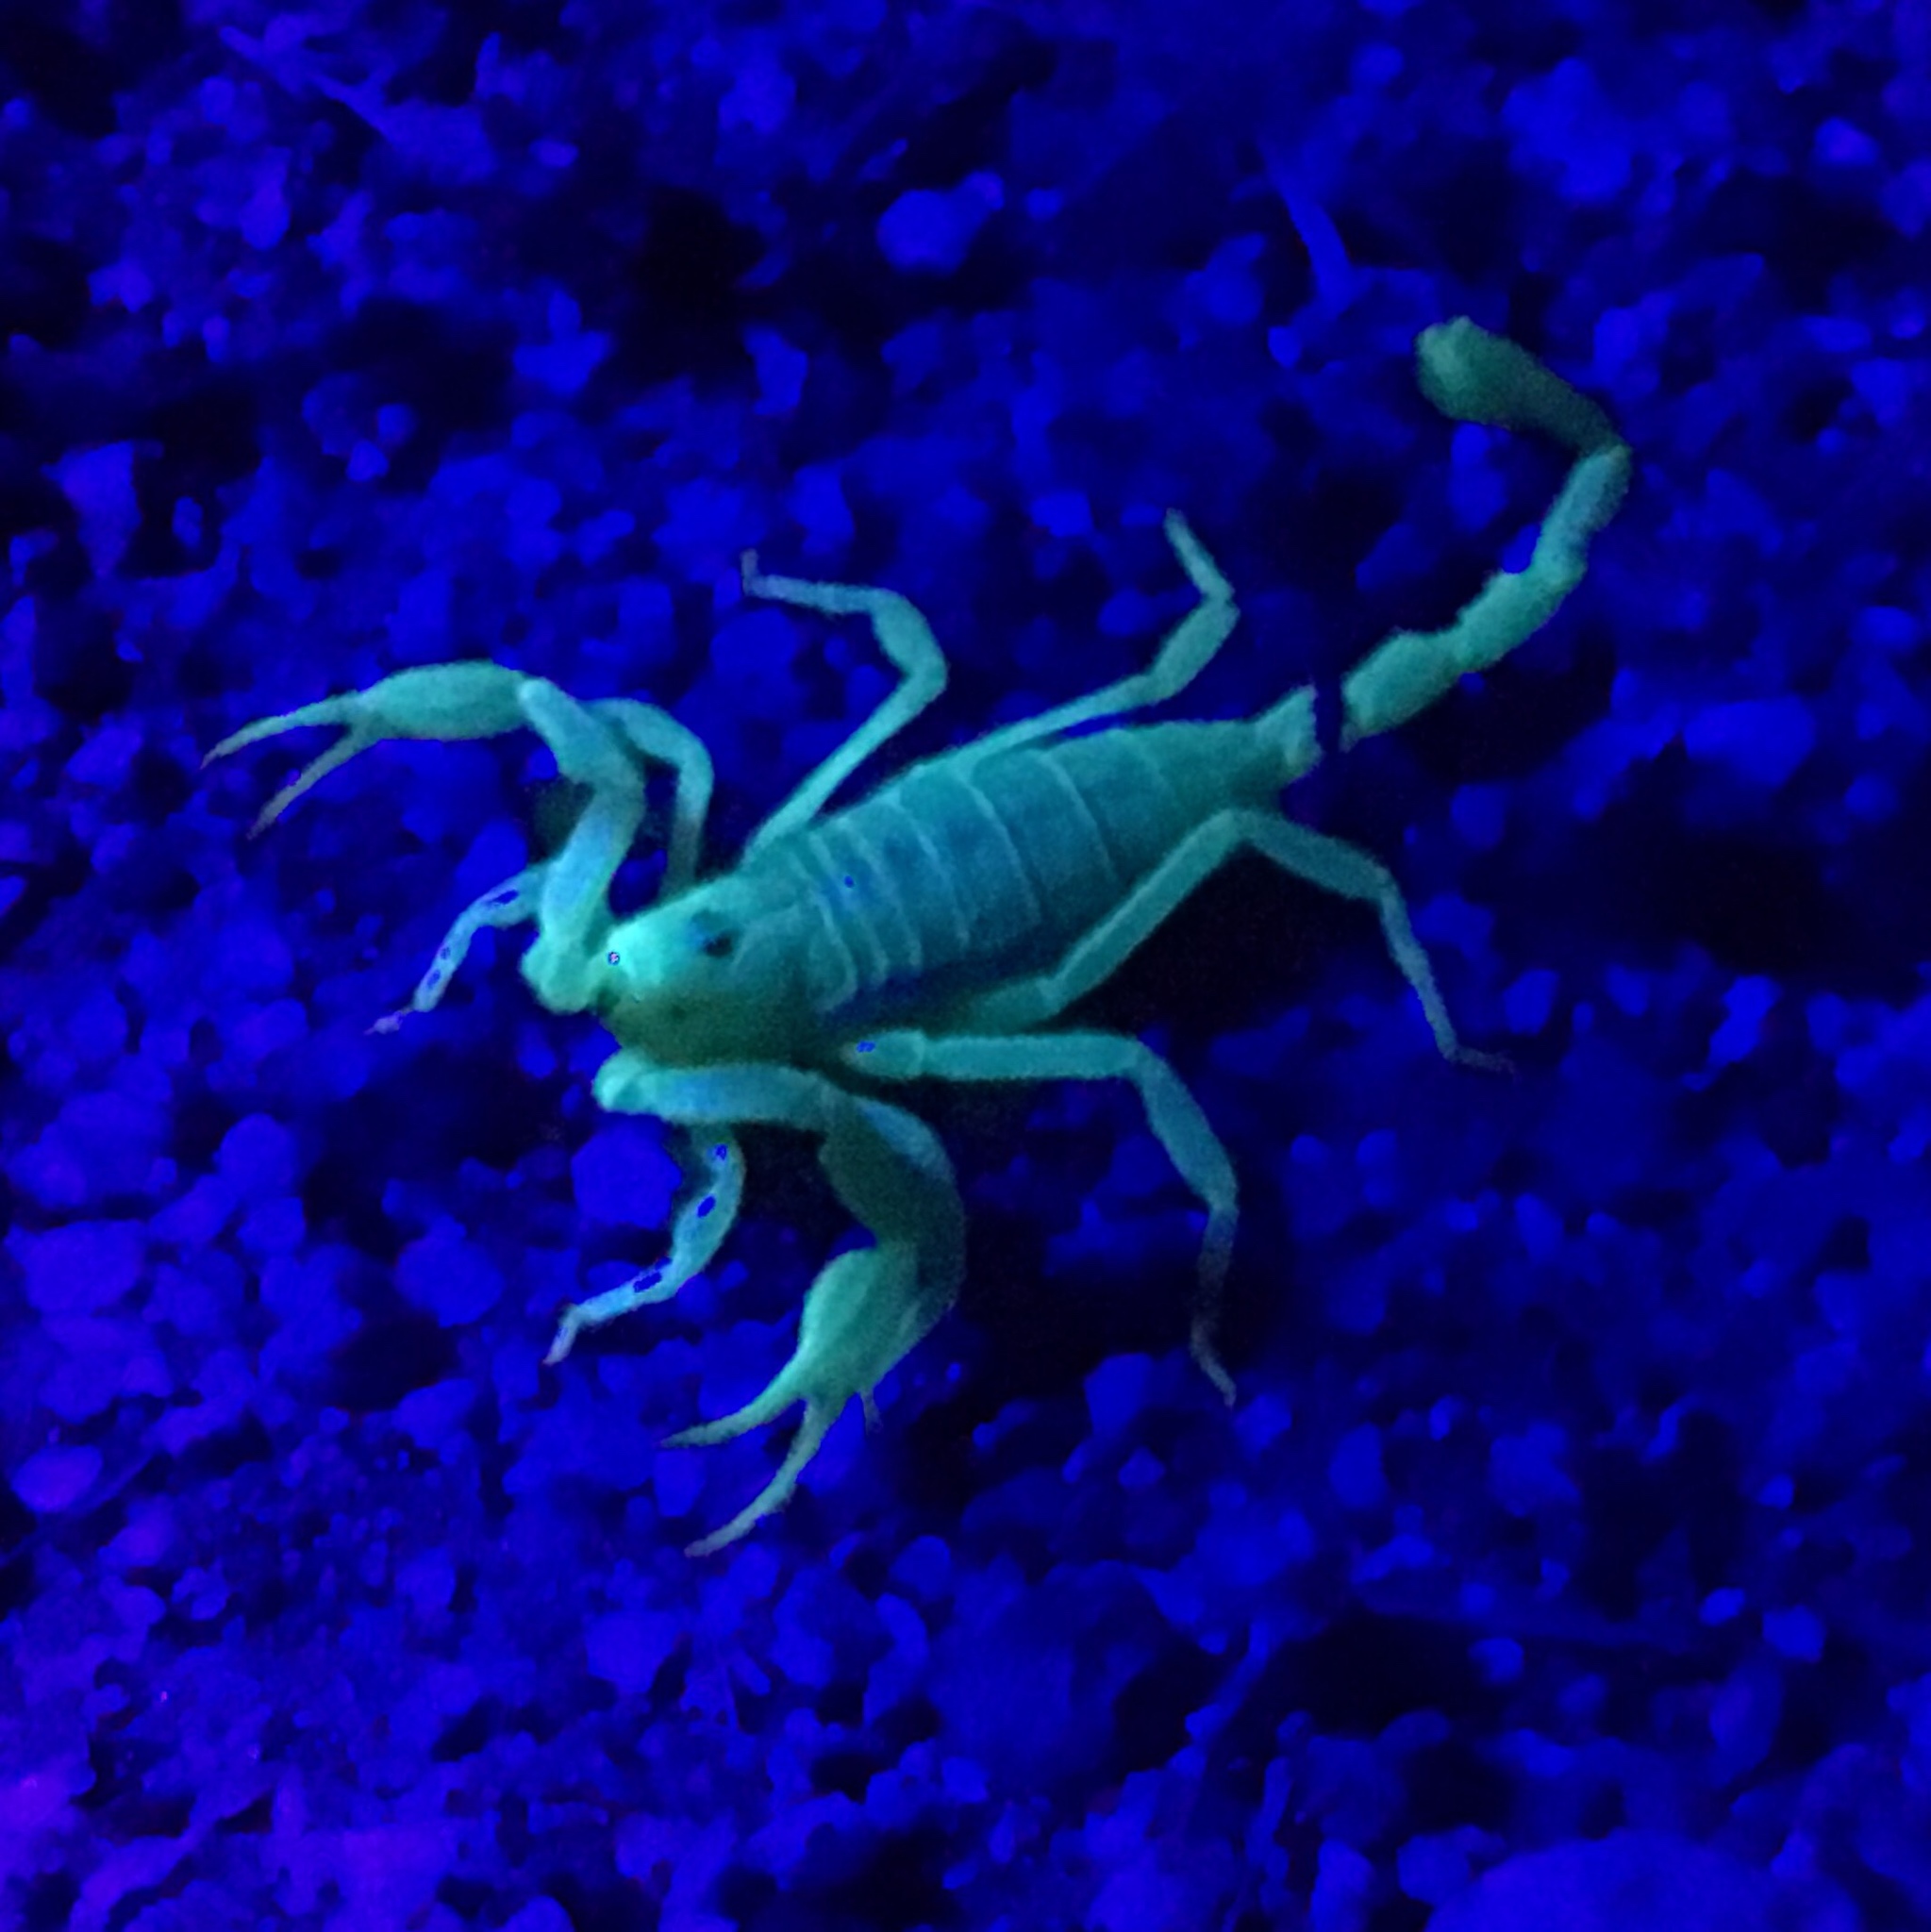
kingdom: Animalia
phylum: Arthropoda
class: Arachnida
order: Scorpiones
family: Vaejovidae
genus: Smeringurus
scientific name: Smeringurus mesaensis
